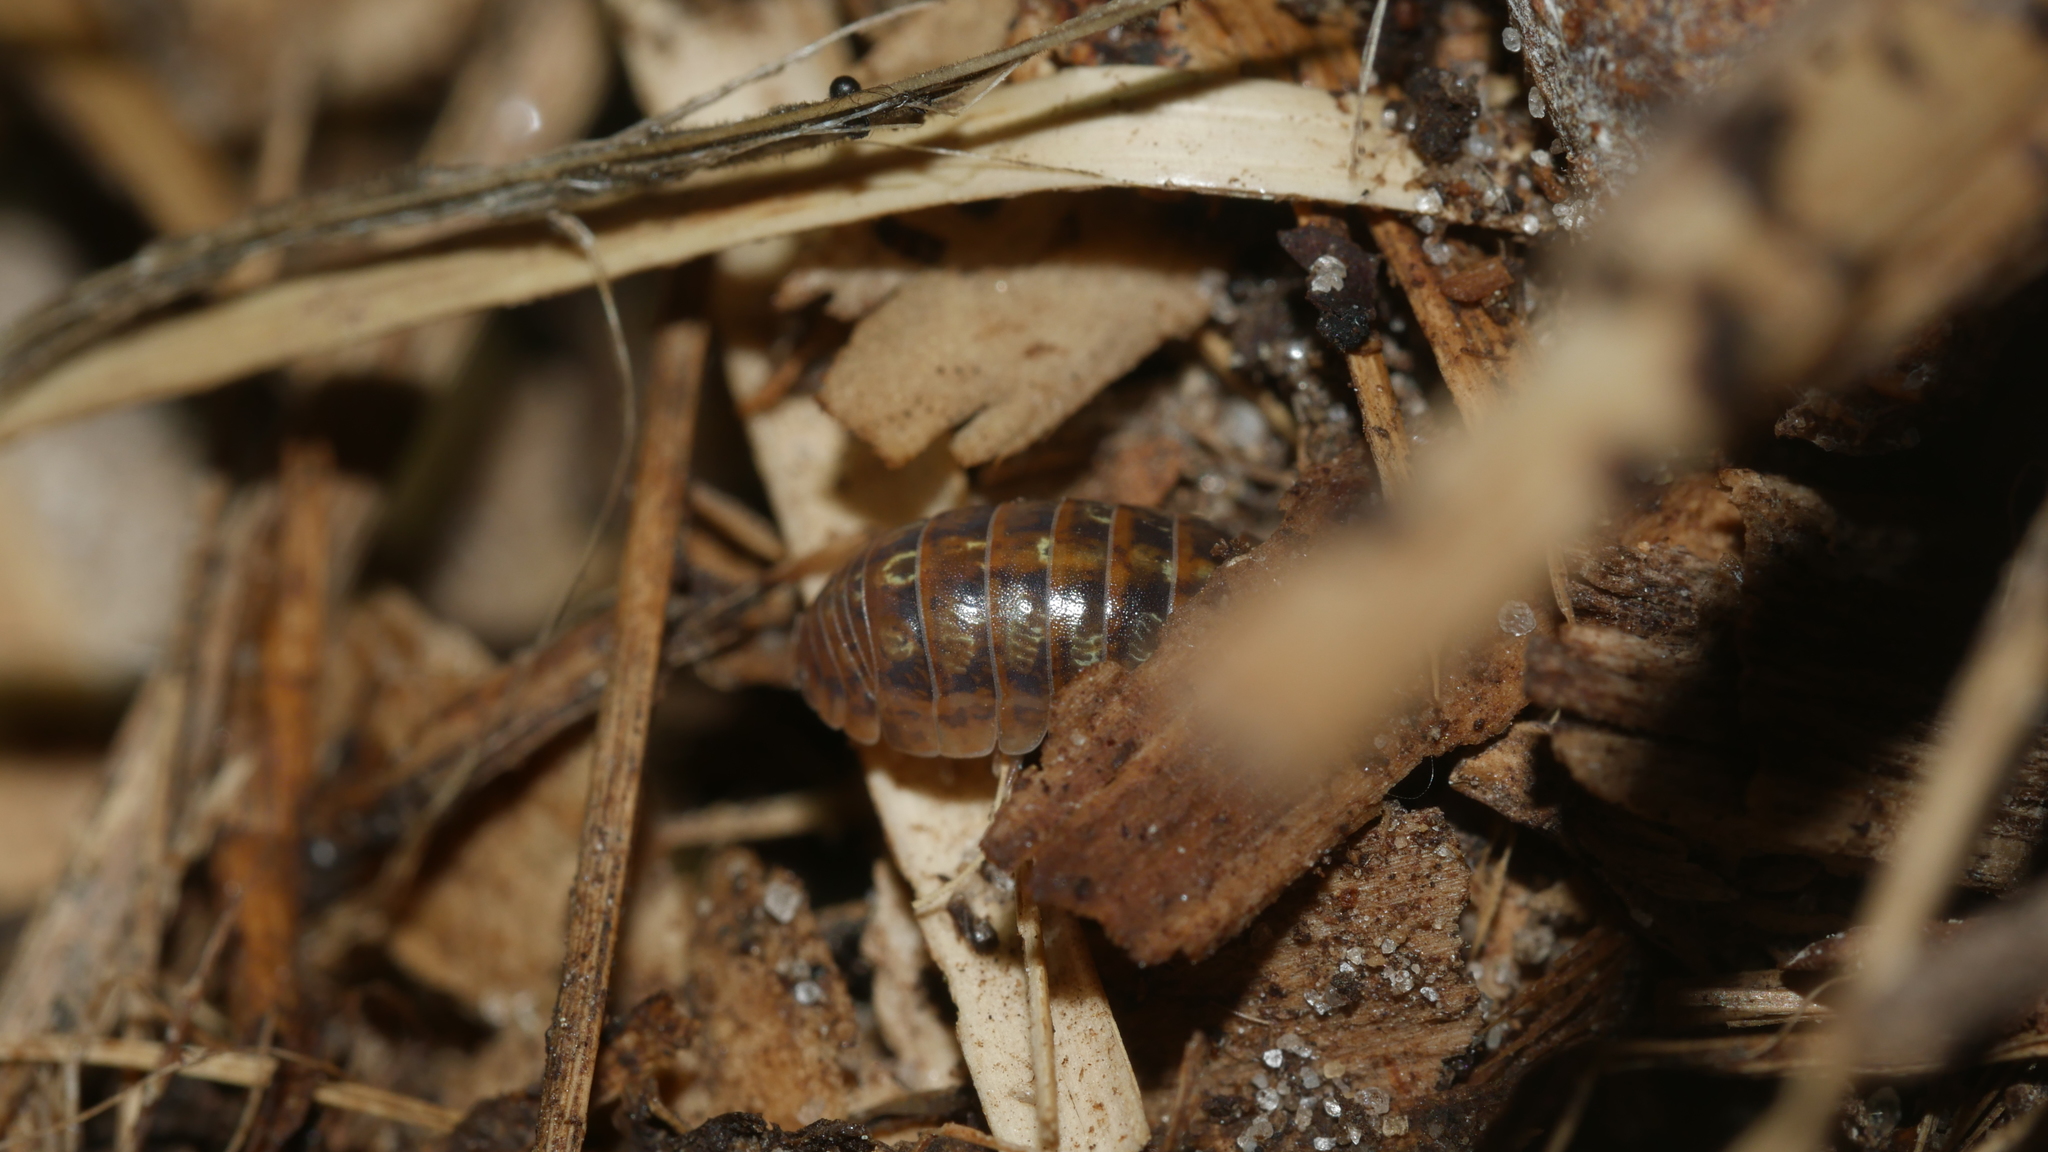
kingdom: Animalia
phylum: Arthropoda
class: Malacostraca
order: Isopoda
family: Armadillidiidae
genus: Armadillidium
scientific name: Armadillidium vulgare
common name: Common pill woodlouse
